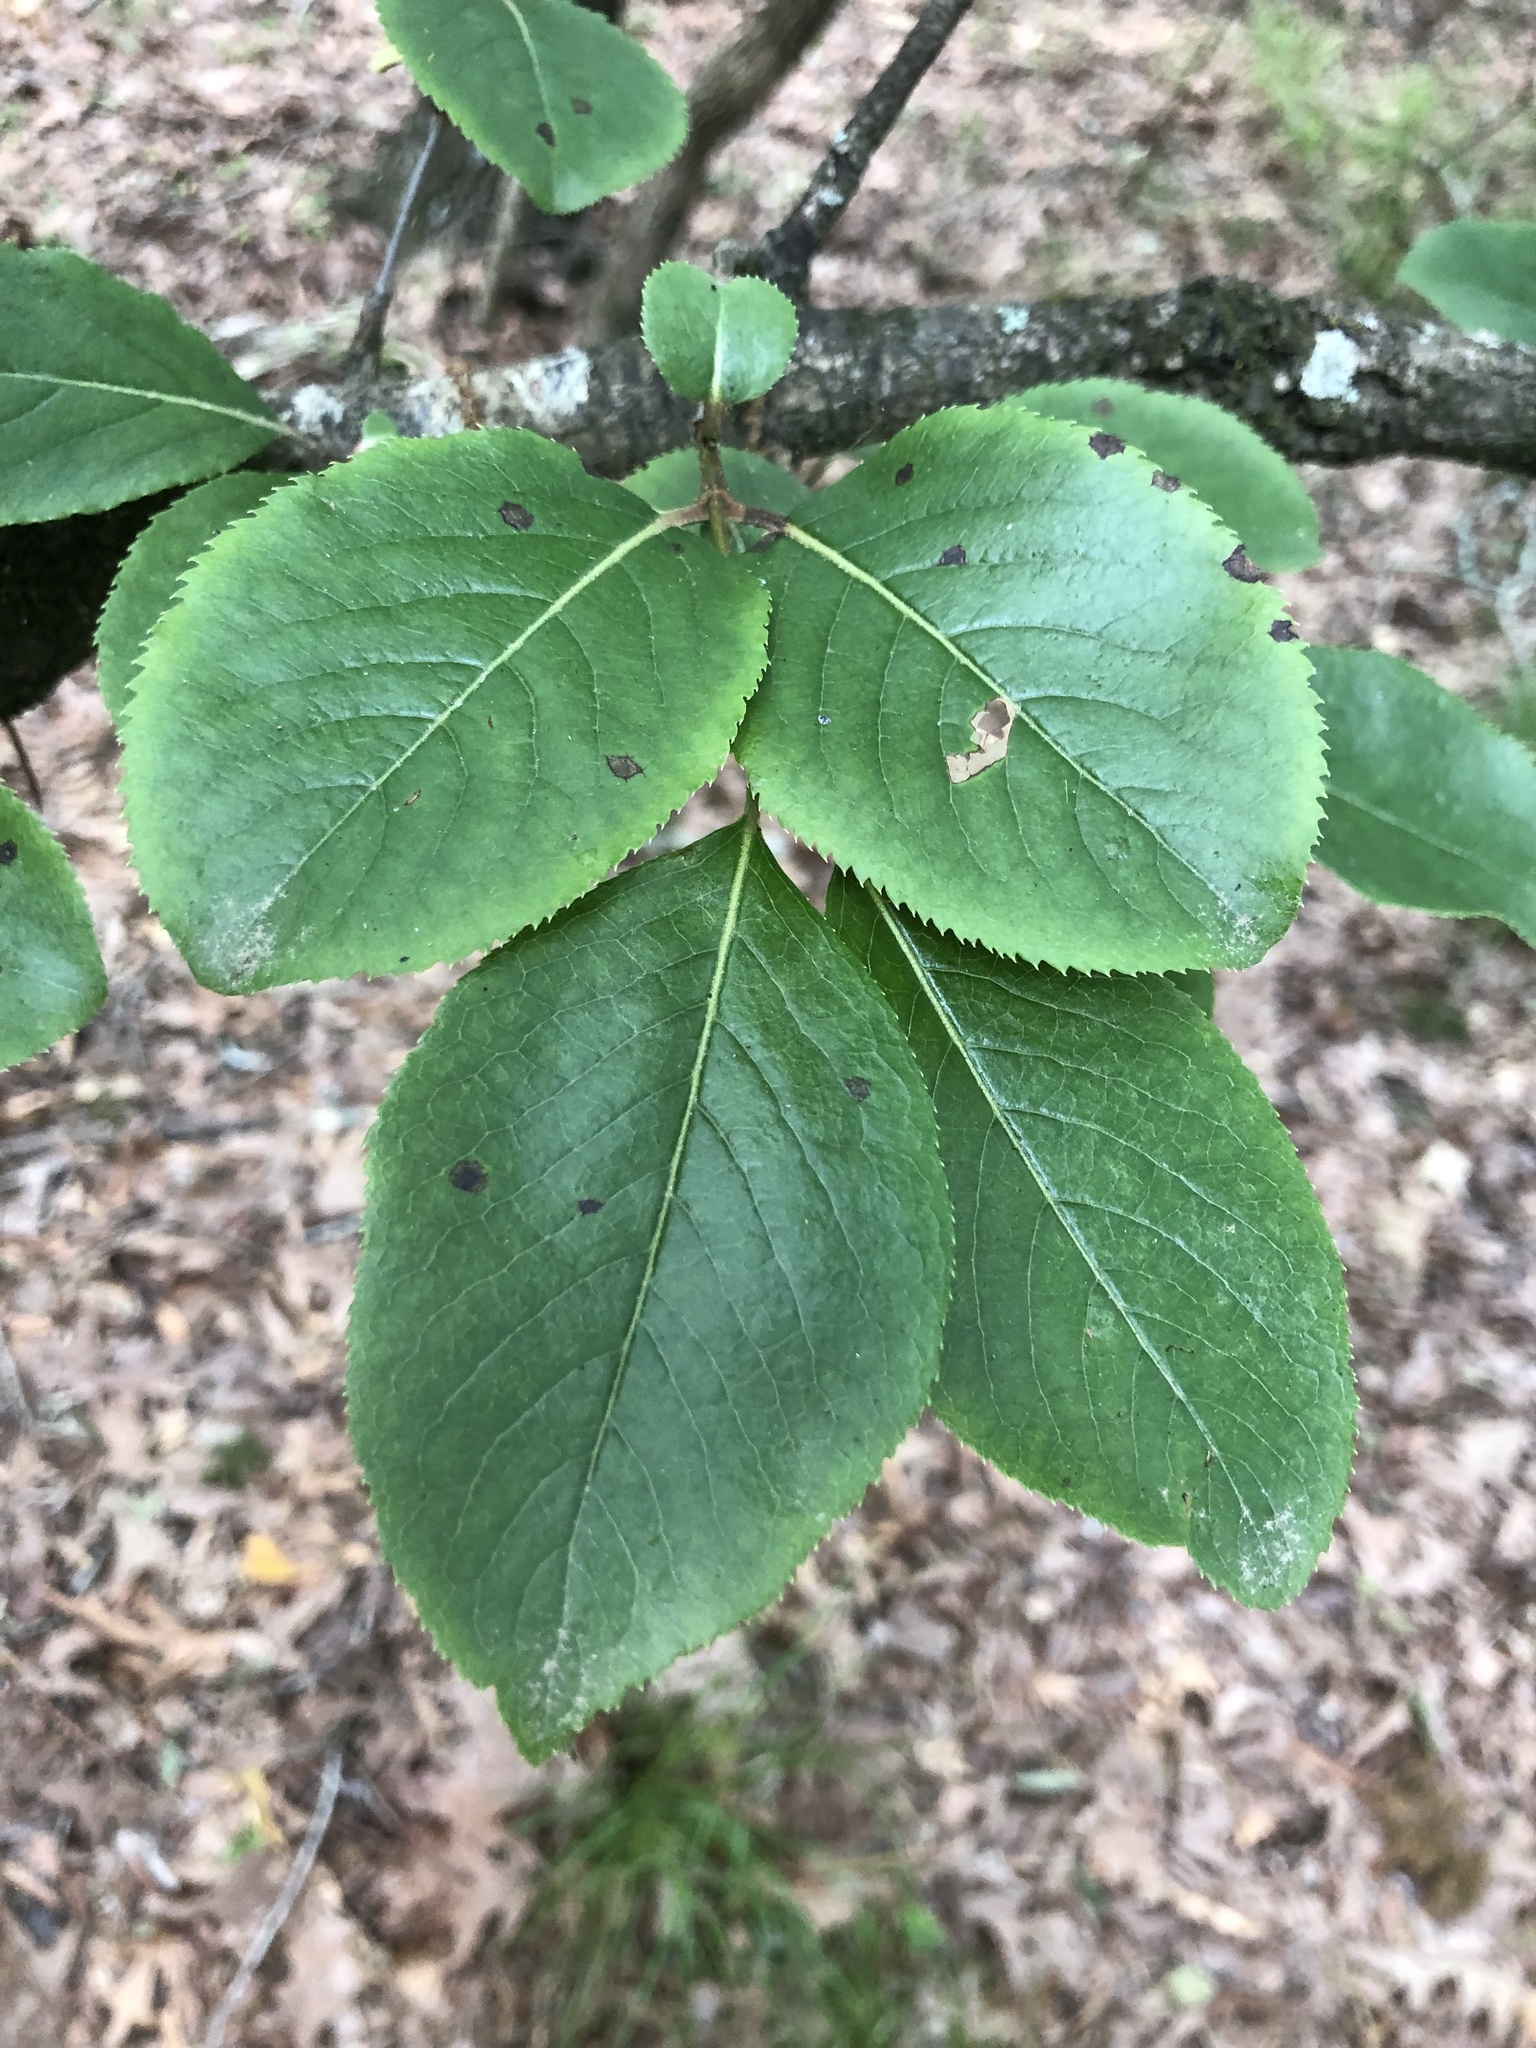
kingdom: Plantae
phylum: Tracheophyta
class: Magnoliopsida
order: Dipsacales
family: Viburnaceae
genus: Viburnum
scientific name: Viburnum rufidulum
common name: Blue haw
